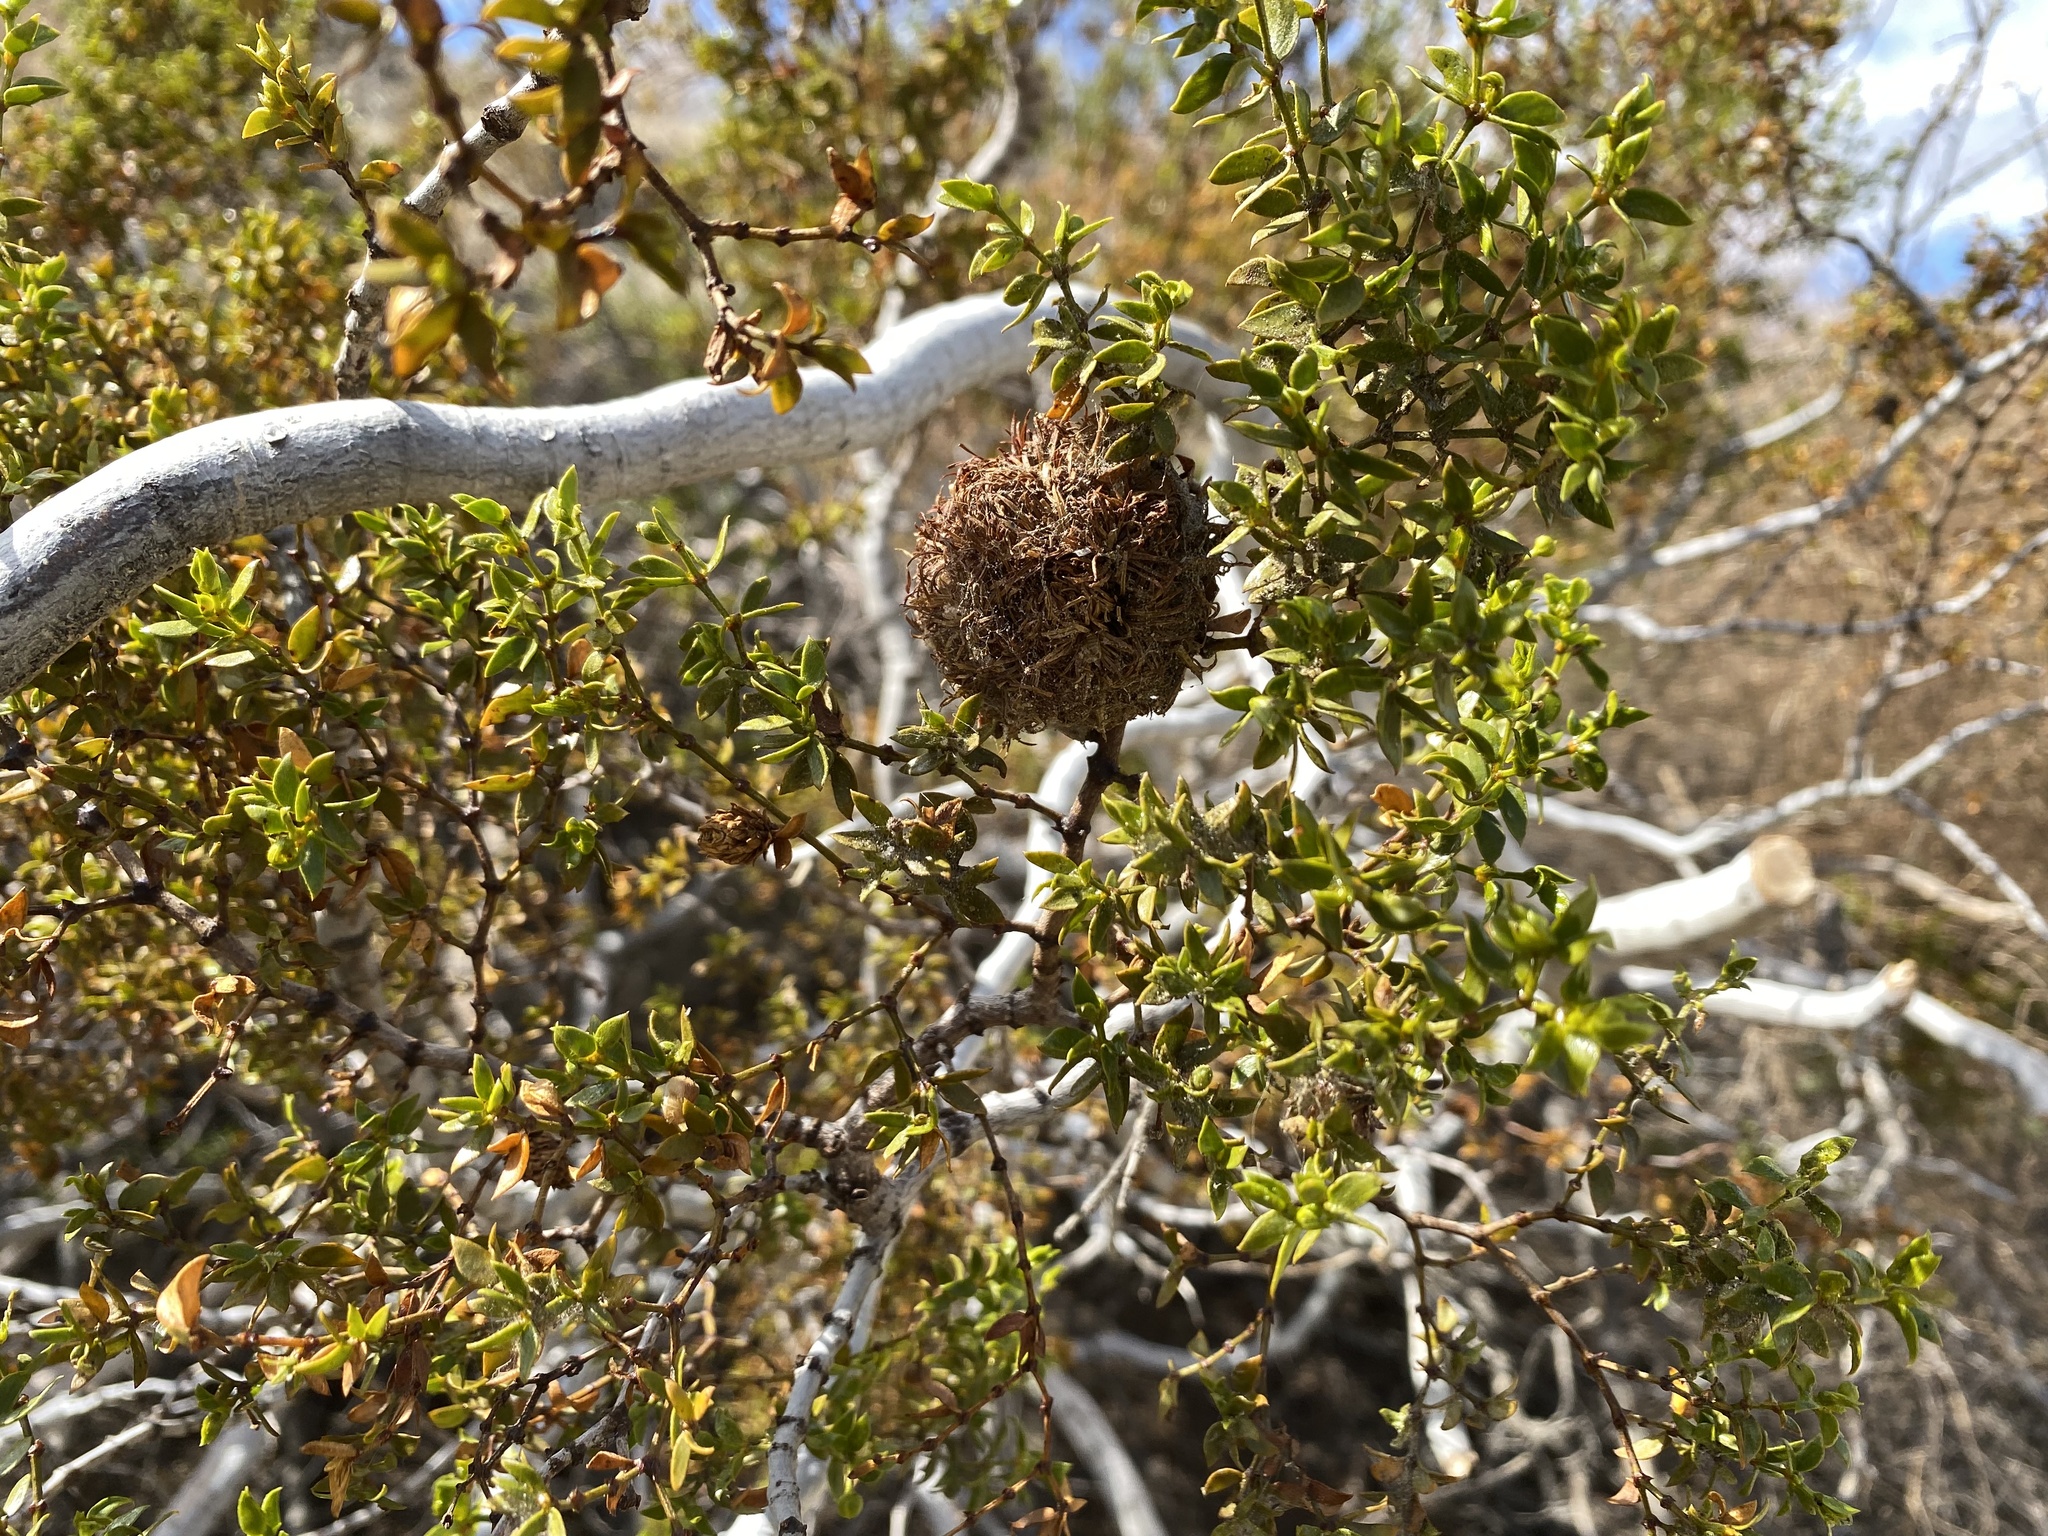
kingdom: Animalia
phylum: Arthropoda
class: Insecta
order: Diptera
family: Cecidomyiidae
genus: Asphondylia
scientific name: Asphondylia auripila
